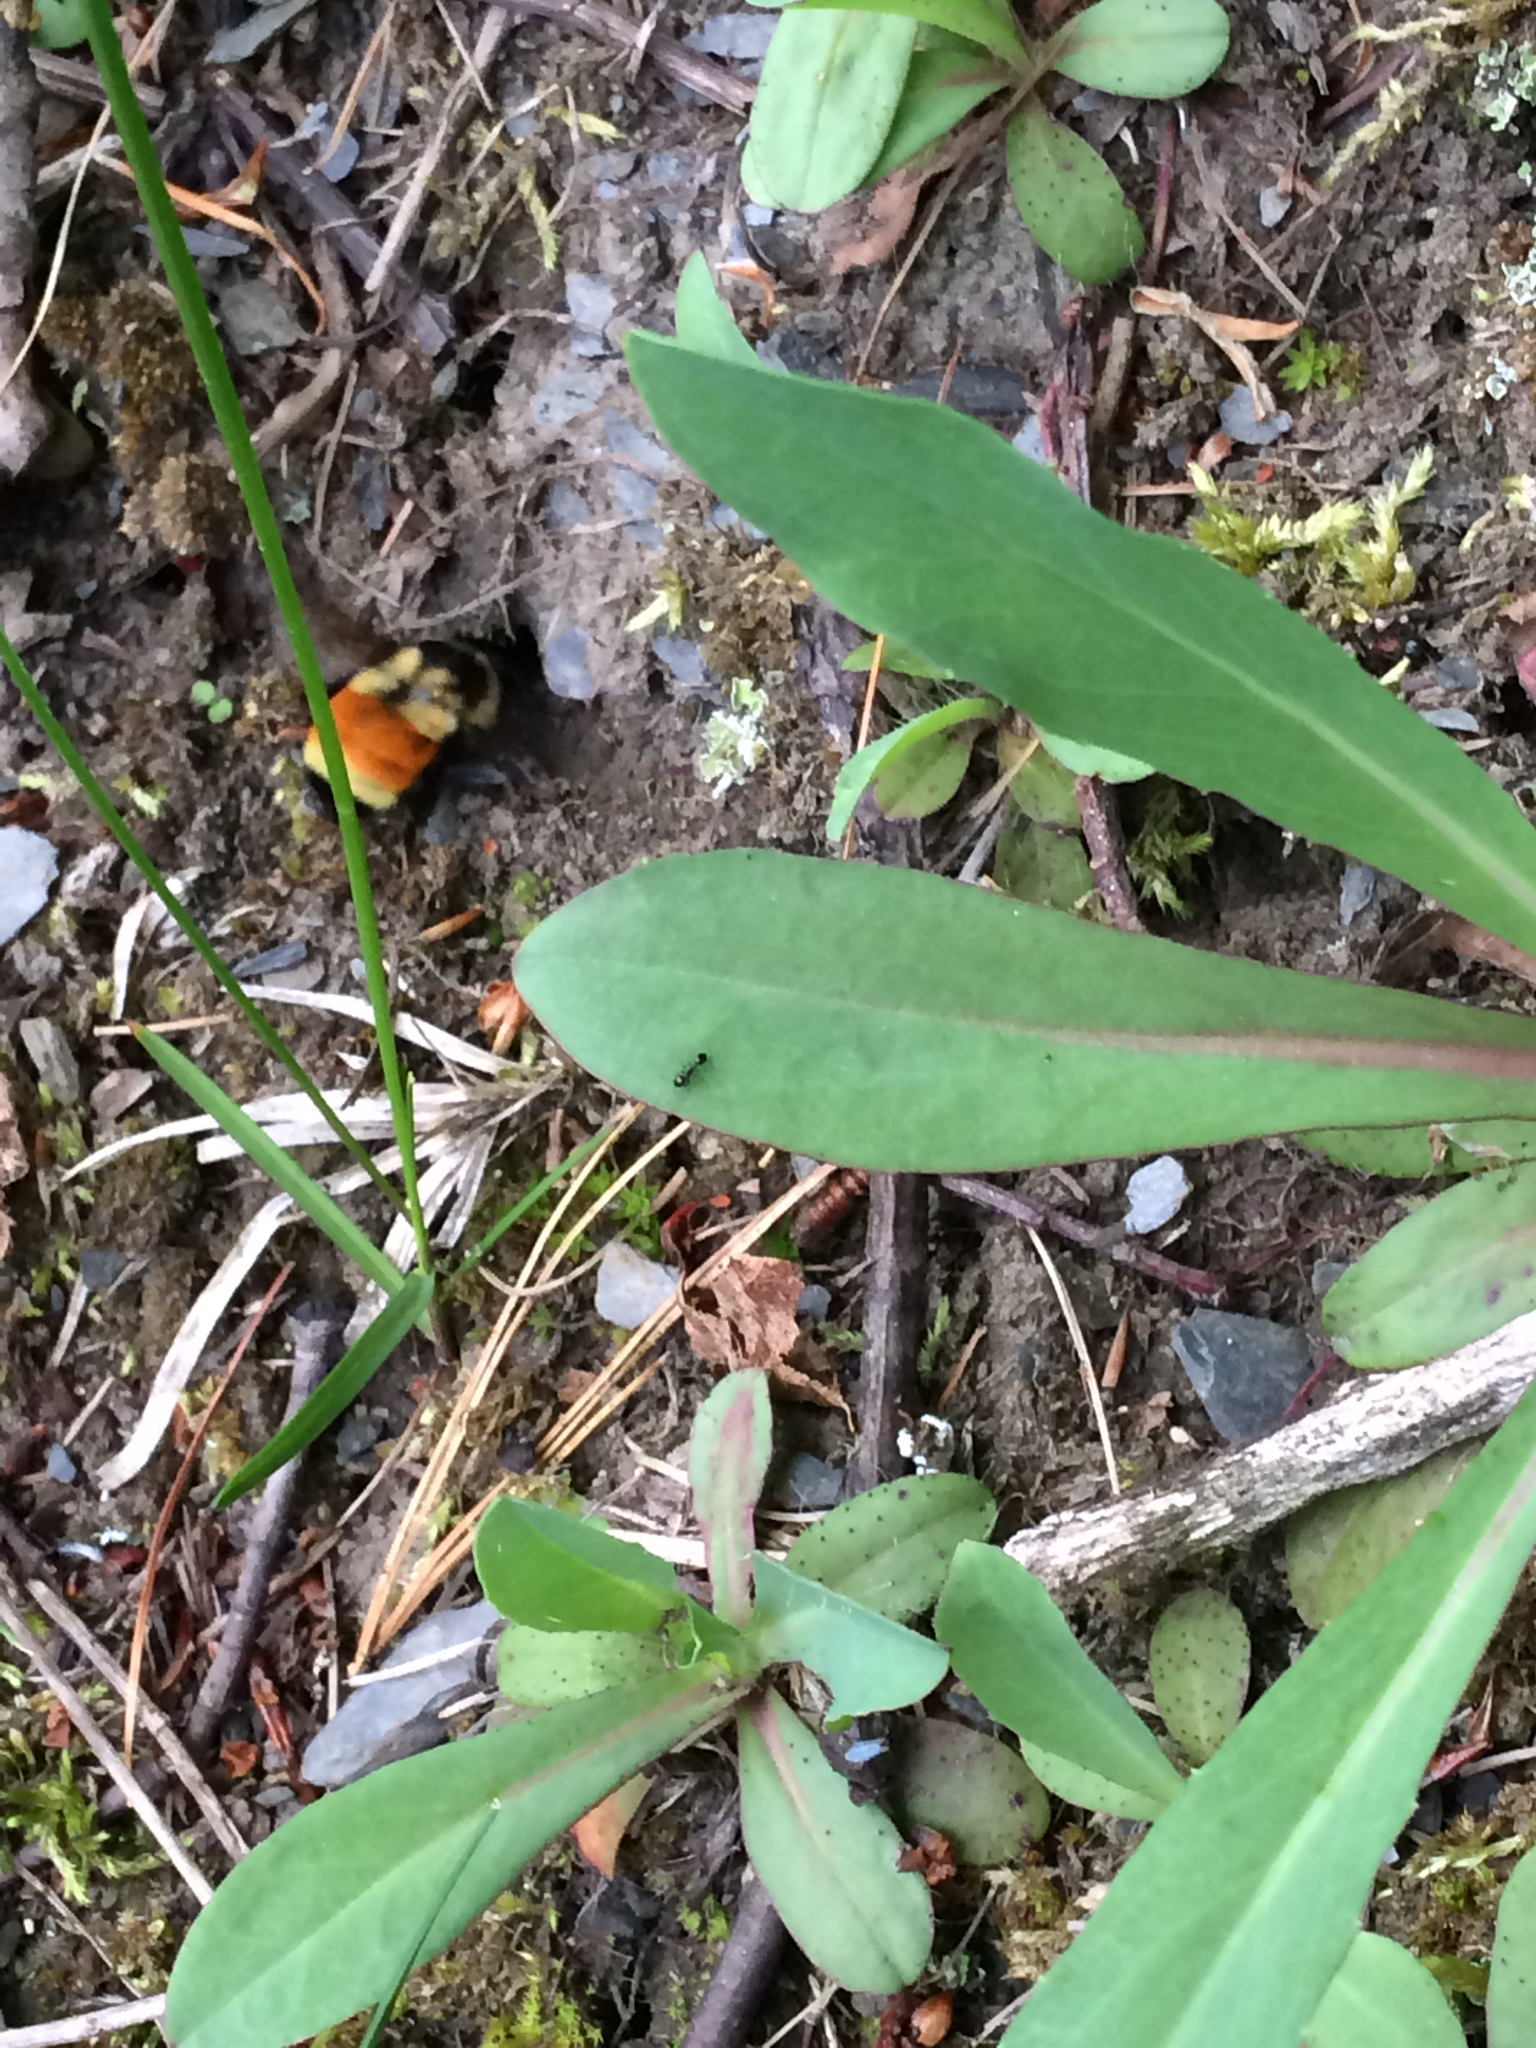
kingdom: Animalia
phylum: Arthropoda
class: Insecta
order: Hymenoptera
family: Apidae
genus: Bombus
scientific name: Bombus ternarius
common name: Tri-colored bumble bee
